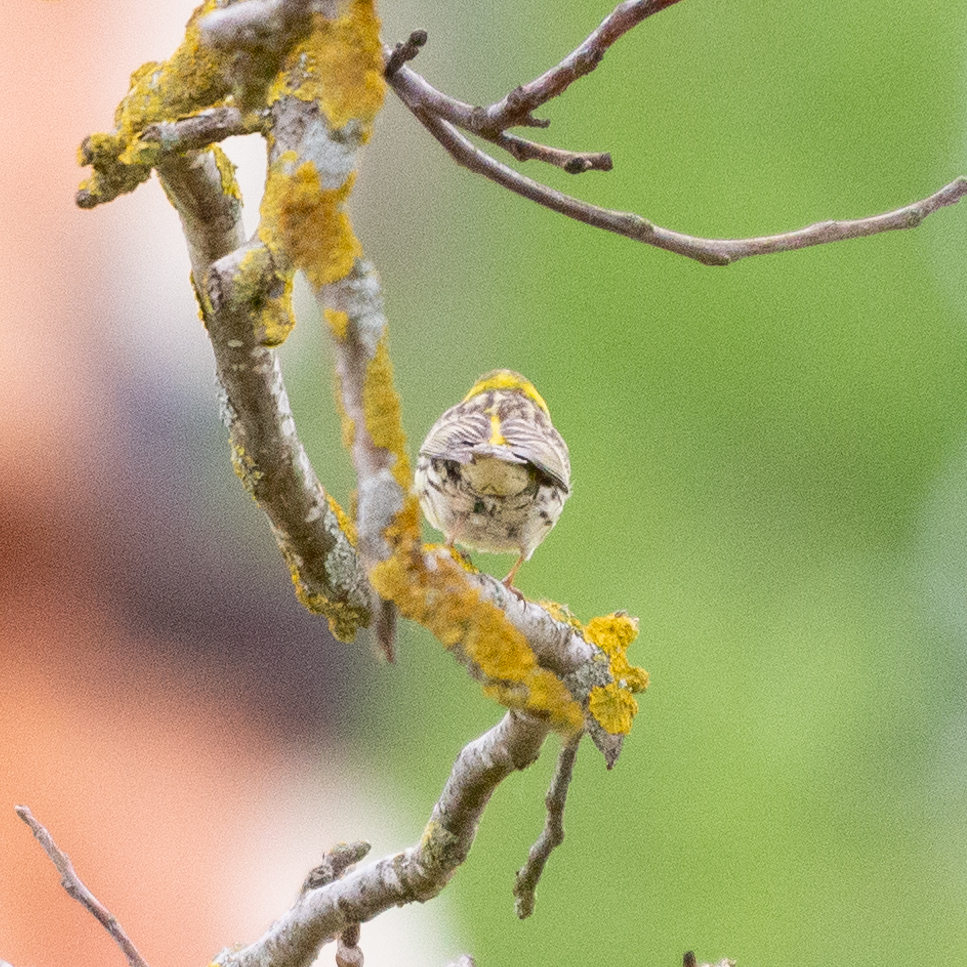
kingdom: Animalia
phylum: Chordata
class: Aves
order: Passeriformes
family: Fringillidae
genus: Serinus
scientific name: Serinus serinus
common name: European serin
